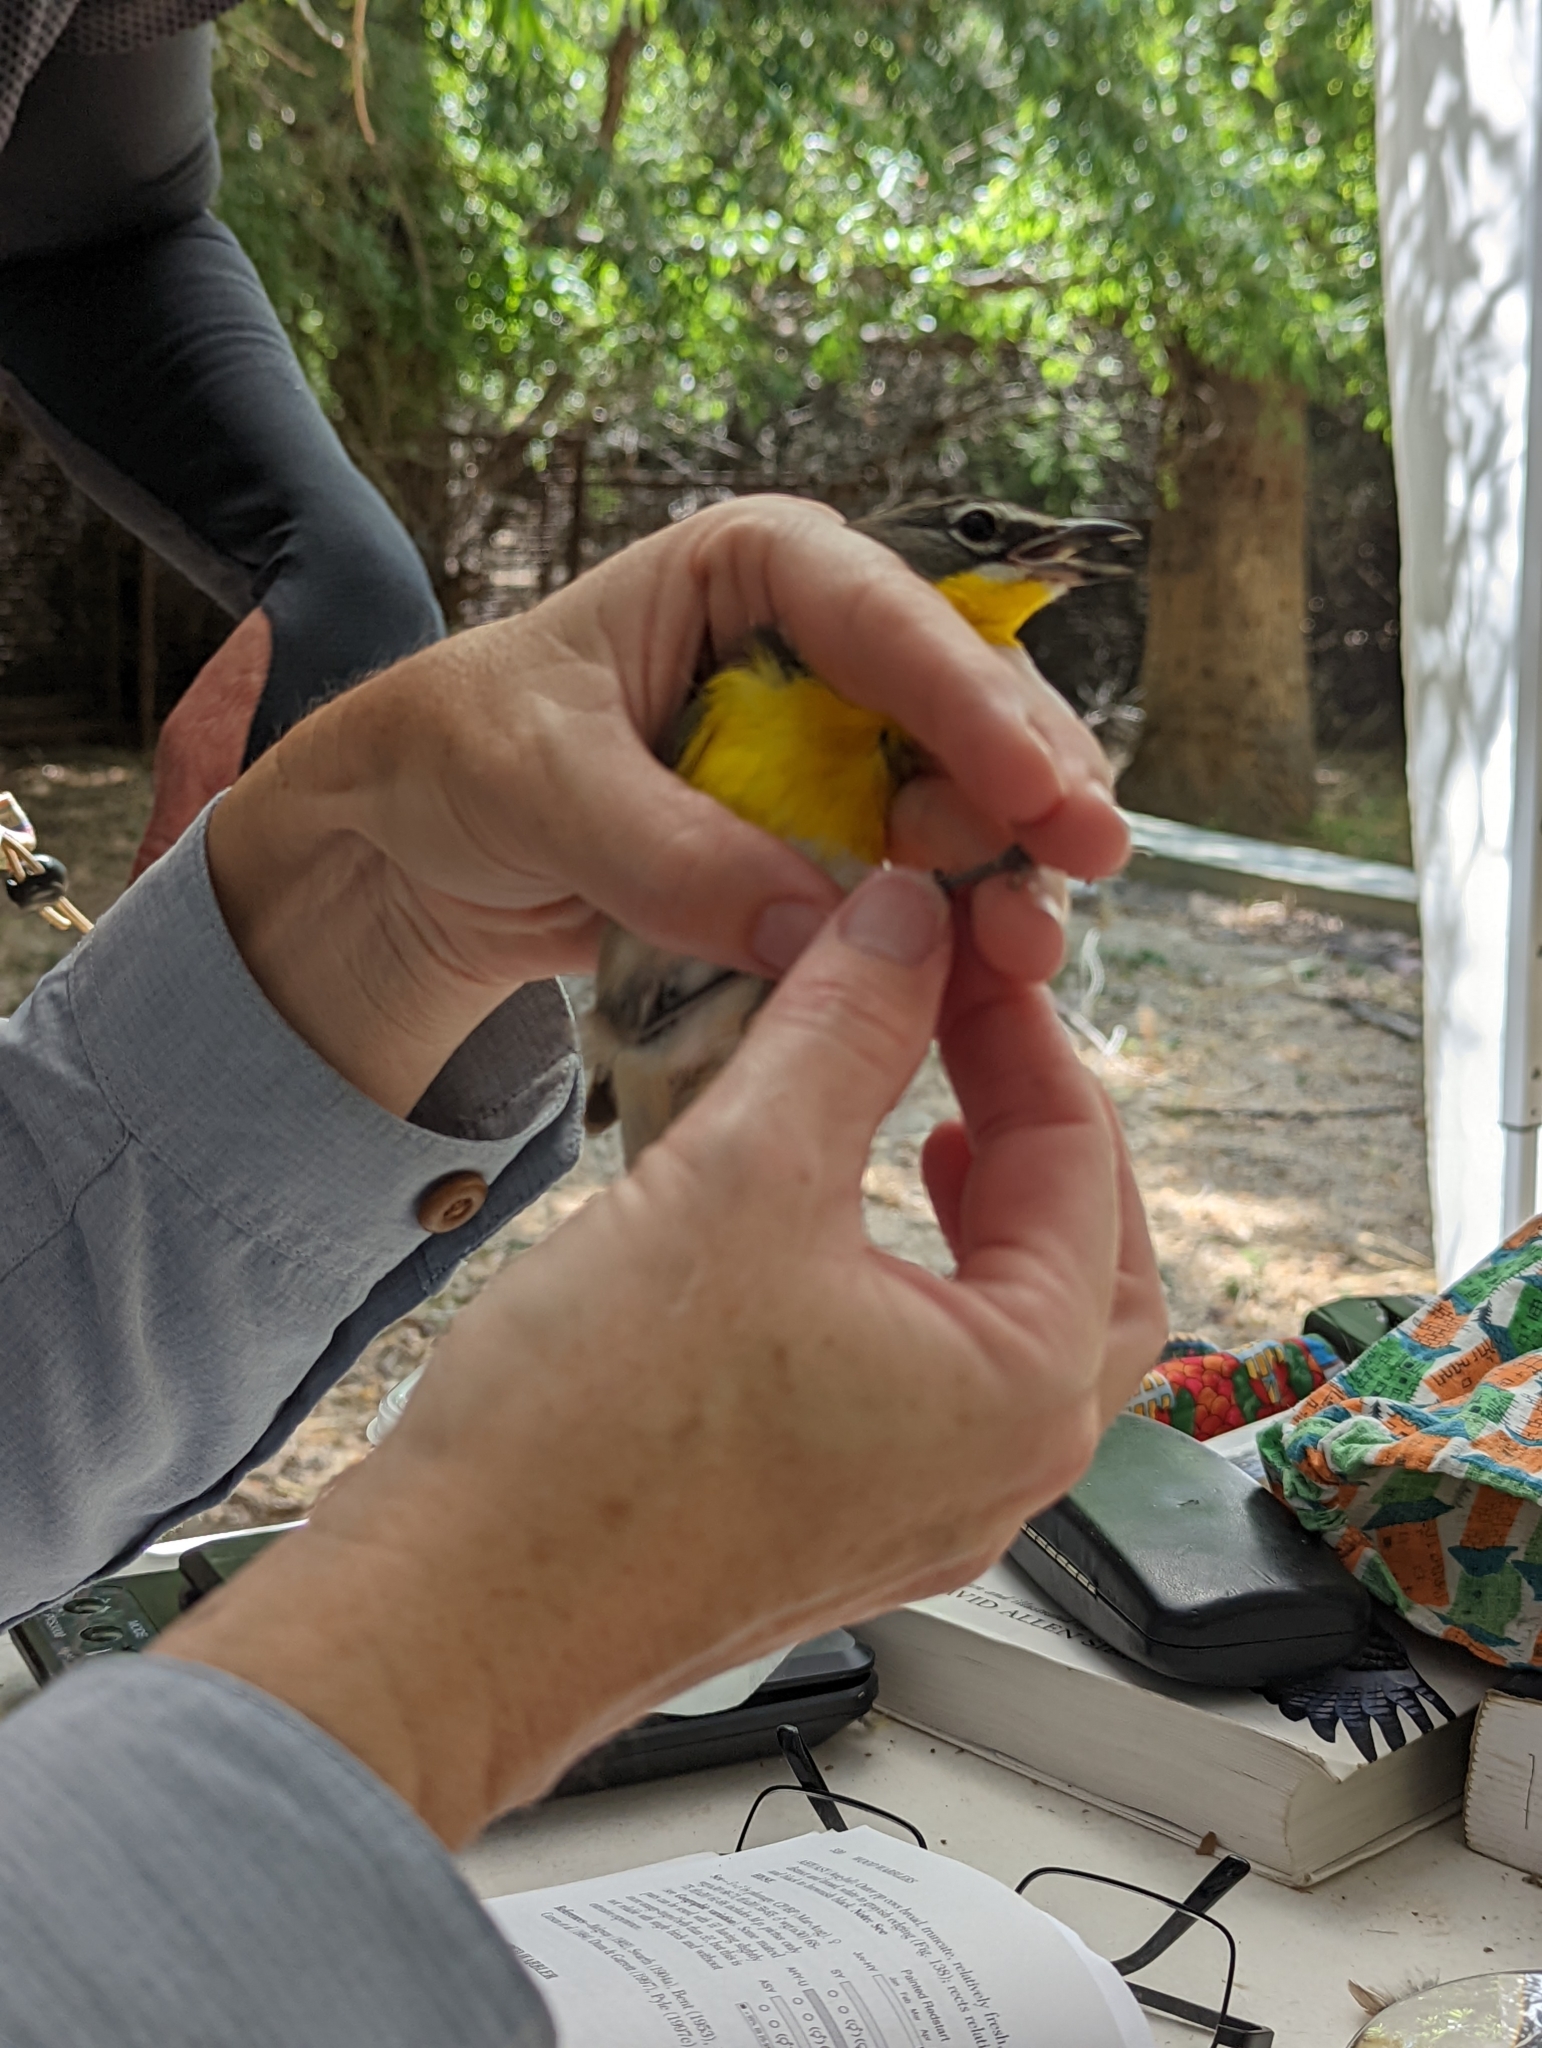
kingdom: Animalia
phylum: Chordata
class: Aves
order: Passeriformes
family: Parulidae
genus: Icteria
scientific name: Icteria virens
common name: Yellow-breasted chat
